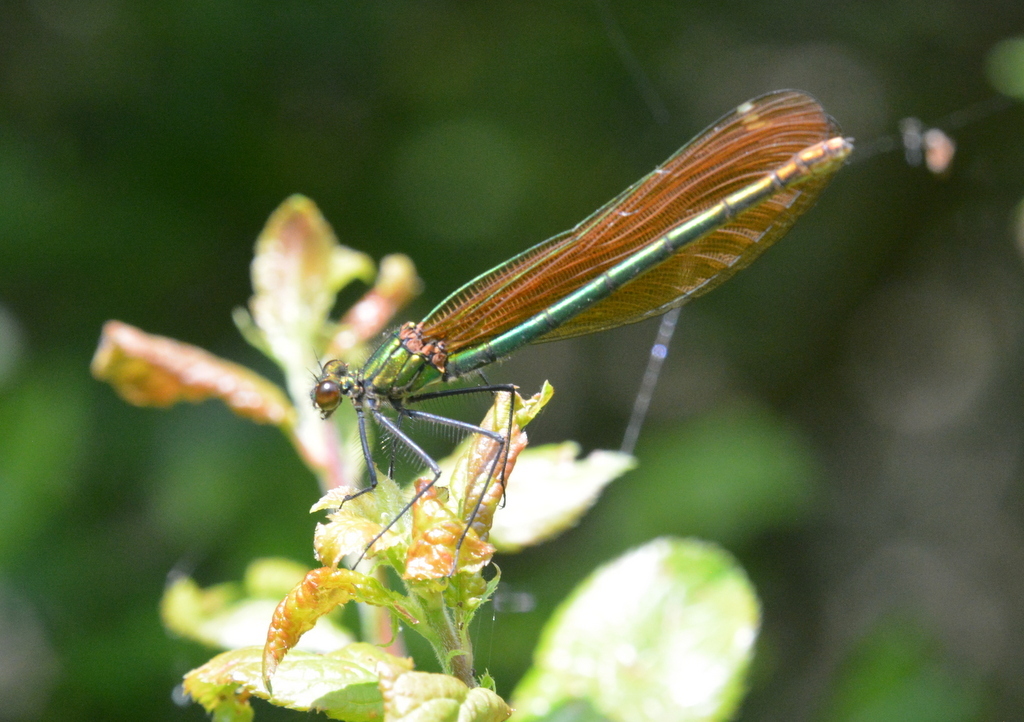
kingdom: Animalia
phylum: Arthropoda
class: Insecta
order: Odonata
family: Calopterygidae
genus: Calopteryx
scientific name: Calopteryx virgo
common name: Beautiful demoiselle
